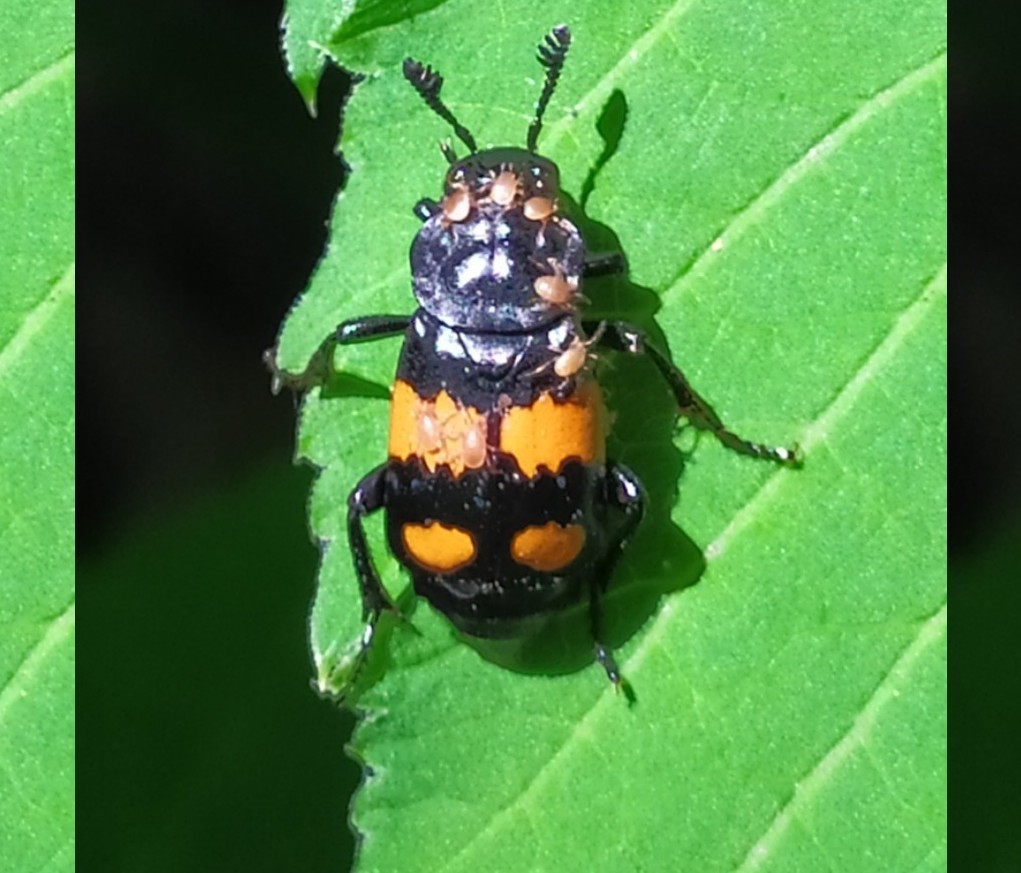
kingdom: Animalia
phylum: Arthropoda
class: Insecta
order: Coleoptera
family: Staphylinidae
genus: Nicrophorus
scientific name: Nicrophorus vespilloides
